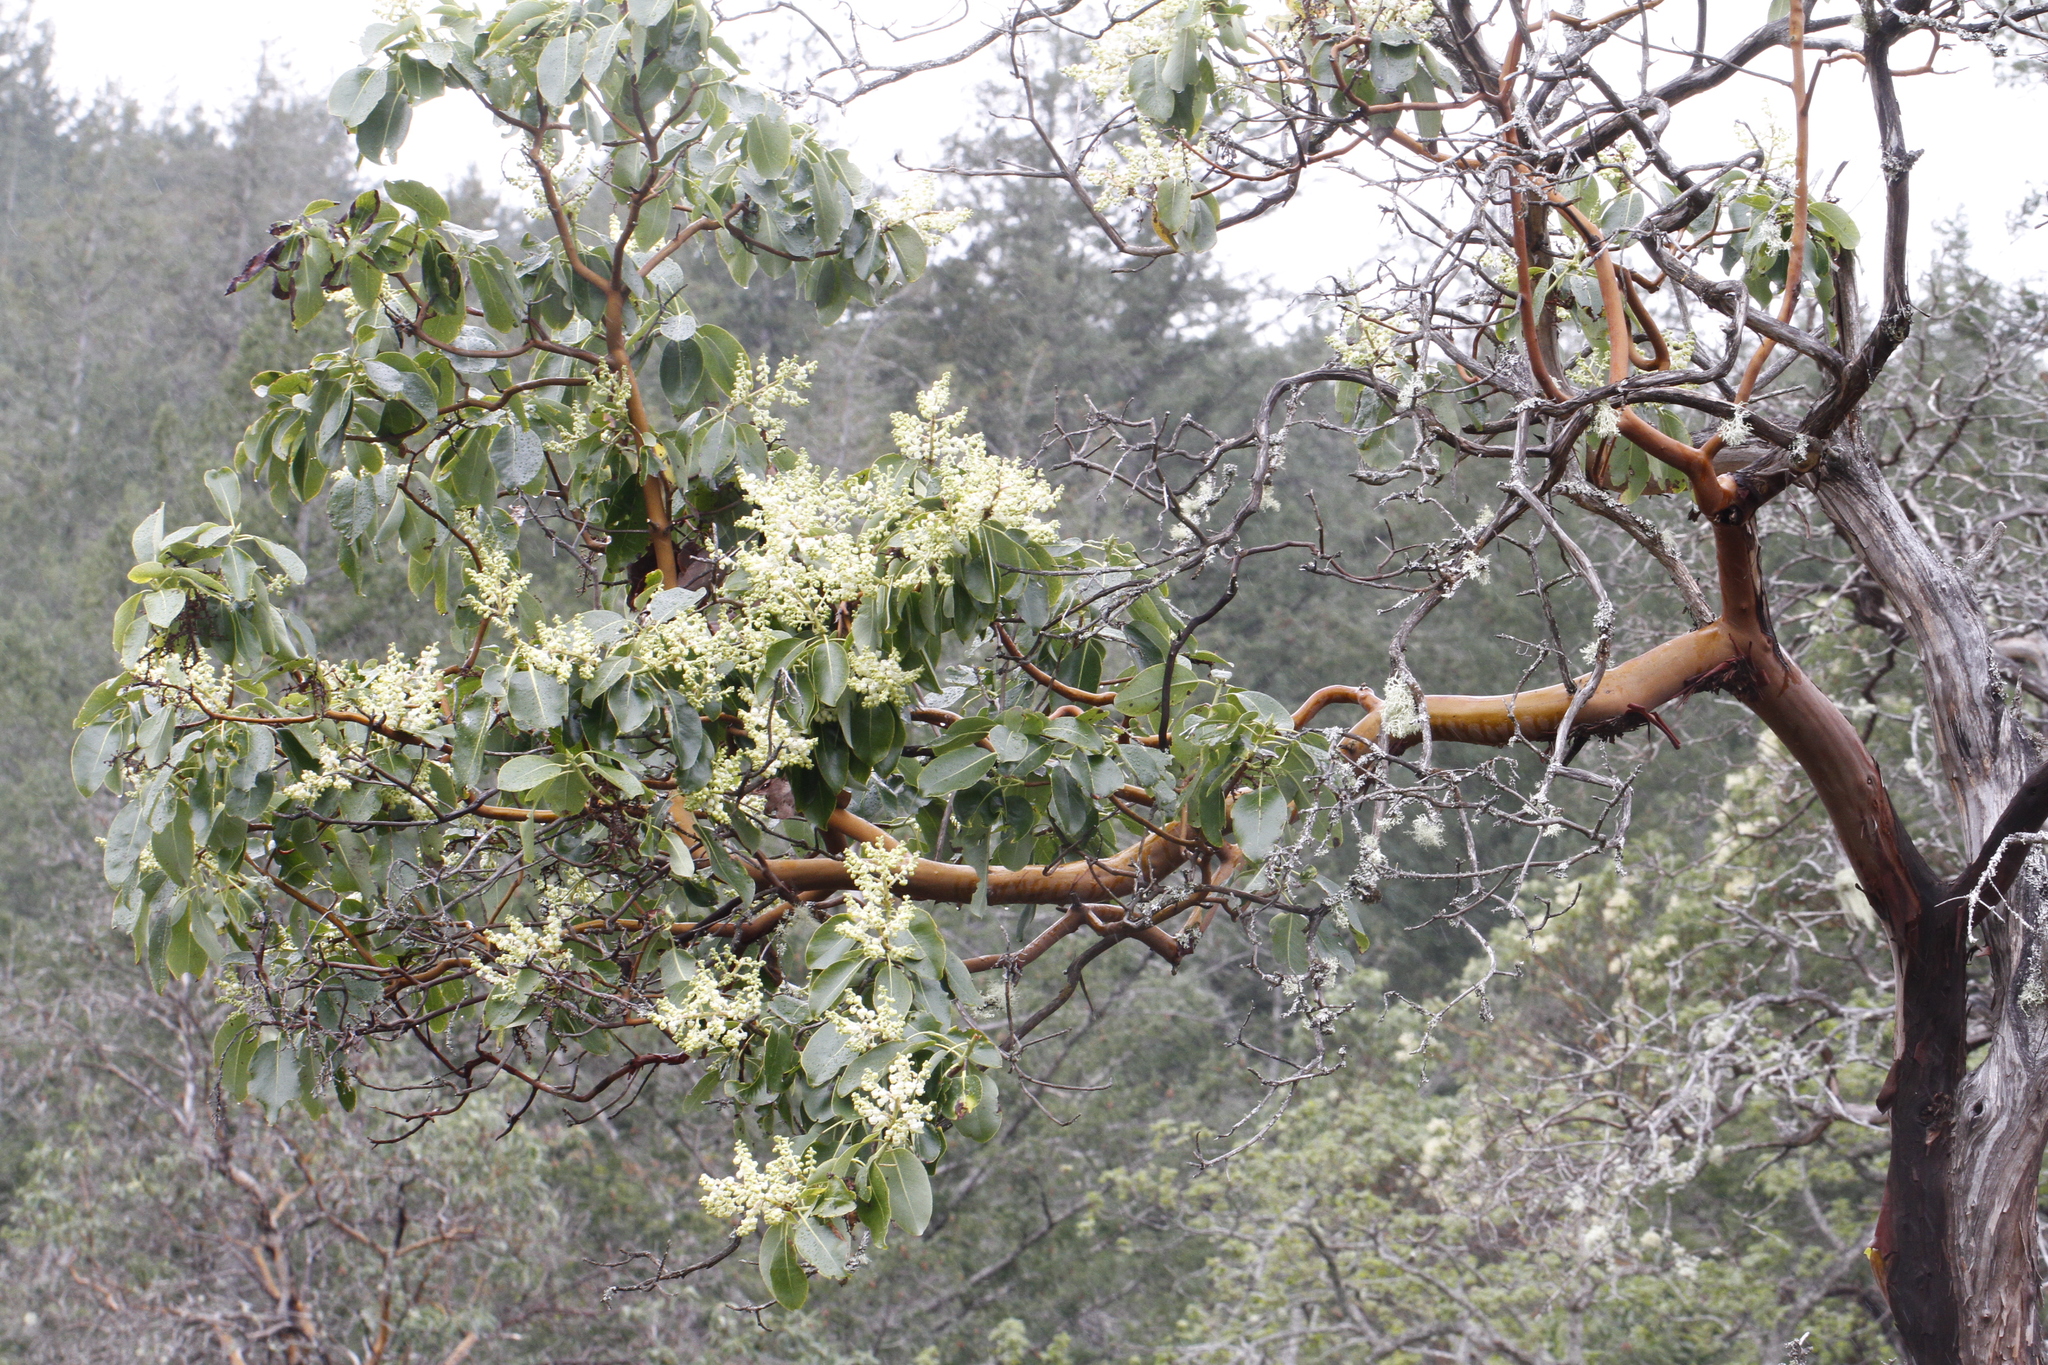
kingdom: Plantae
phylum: Tracheophyta
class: Magnoliopsida
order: Ericales
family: Ericaceae
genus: Arbutus
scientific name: Arbutus menziesii
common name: Pacific madrone
